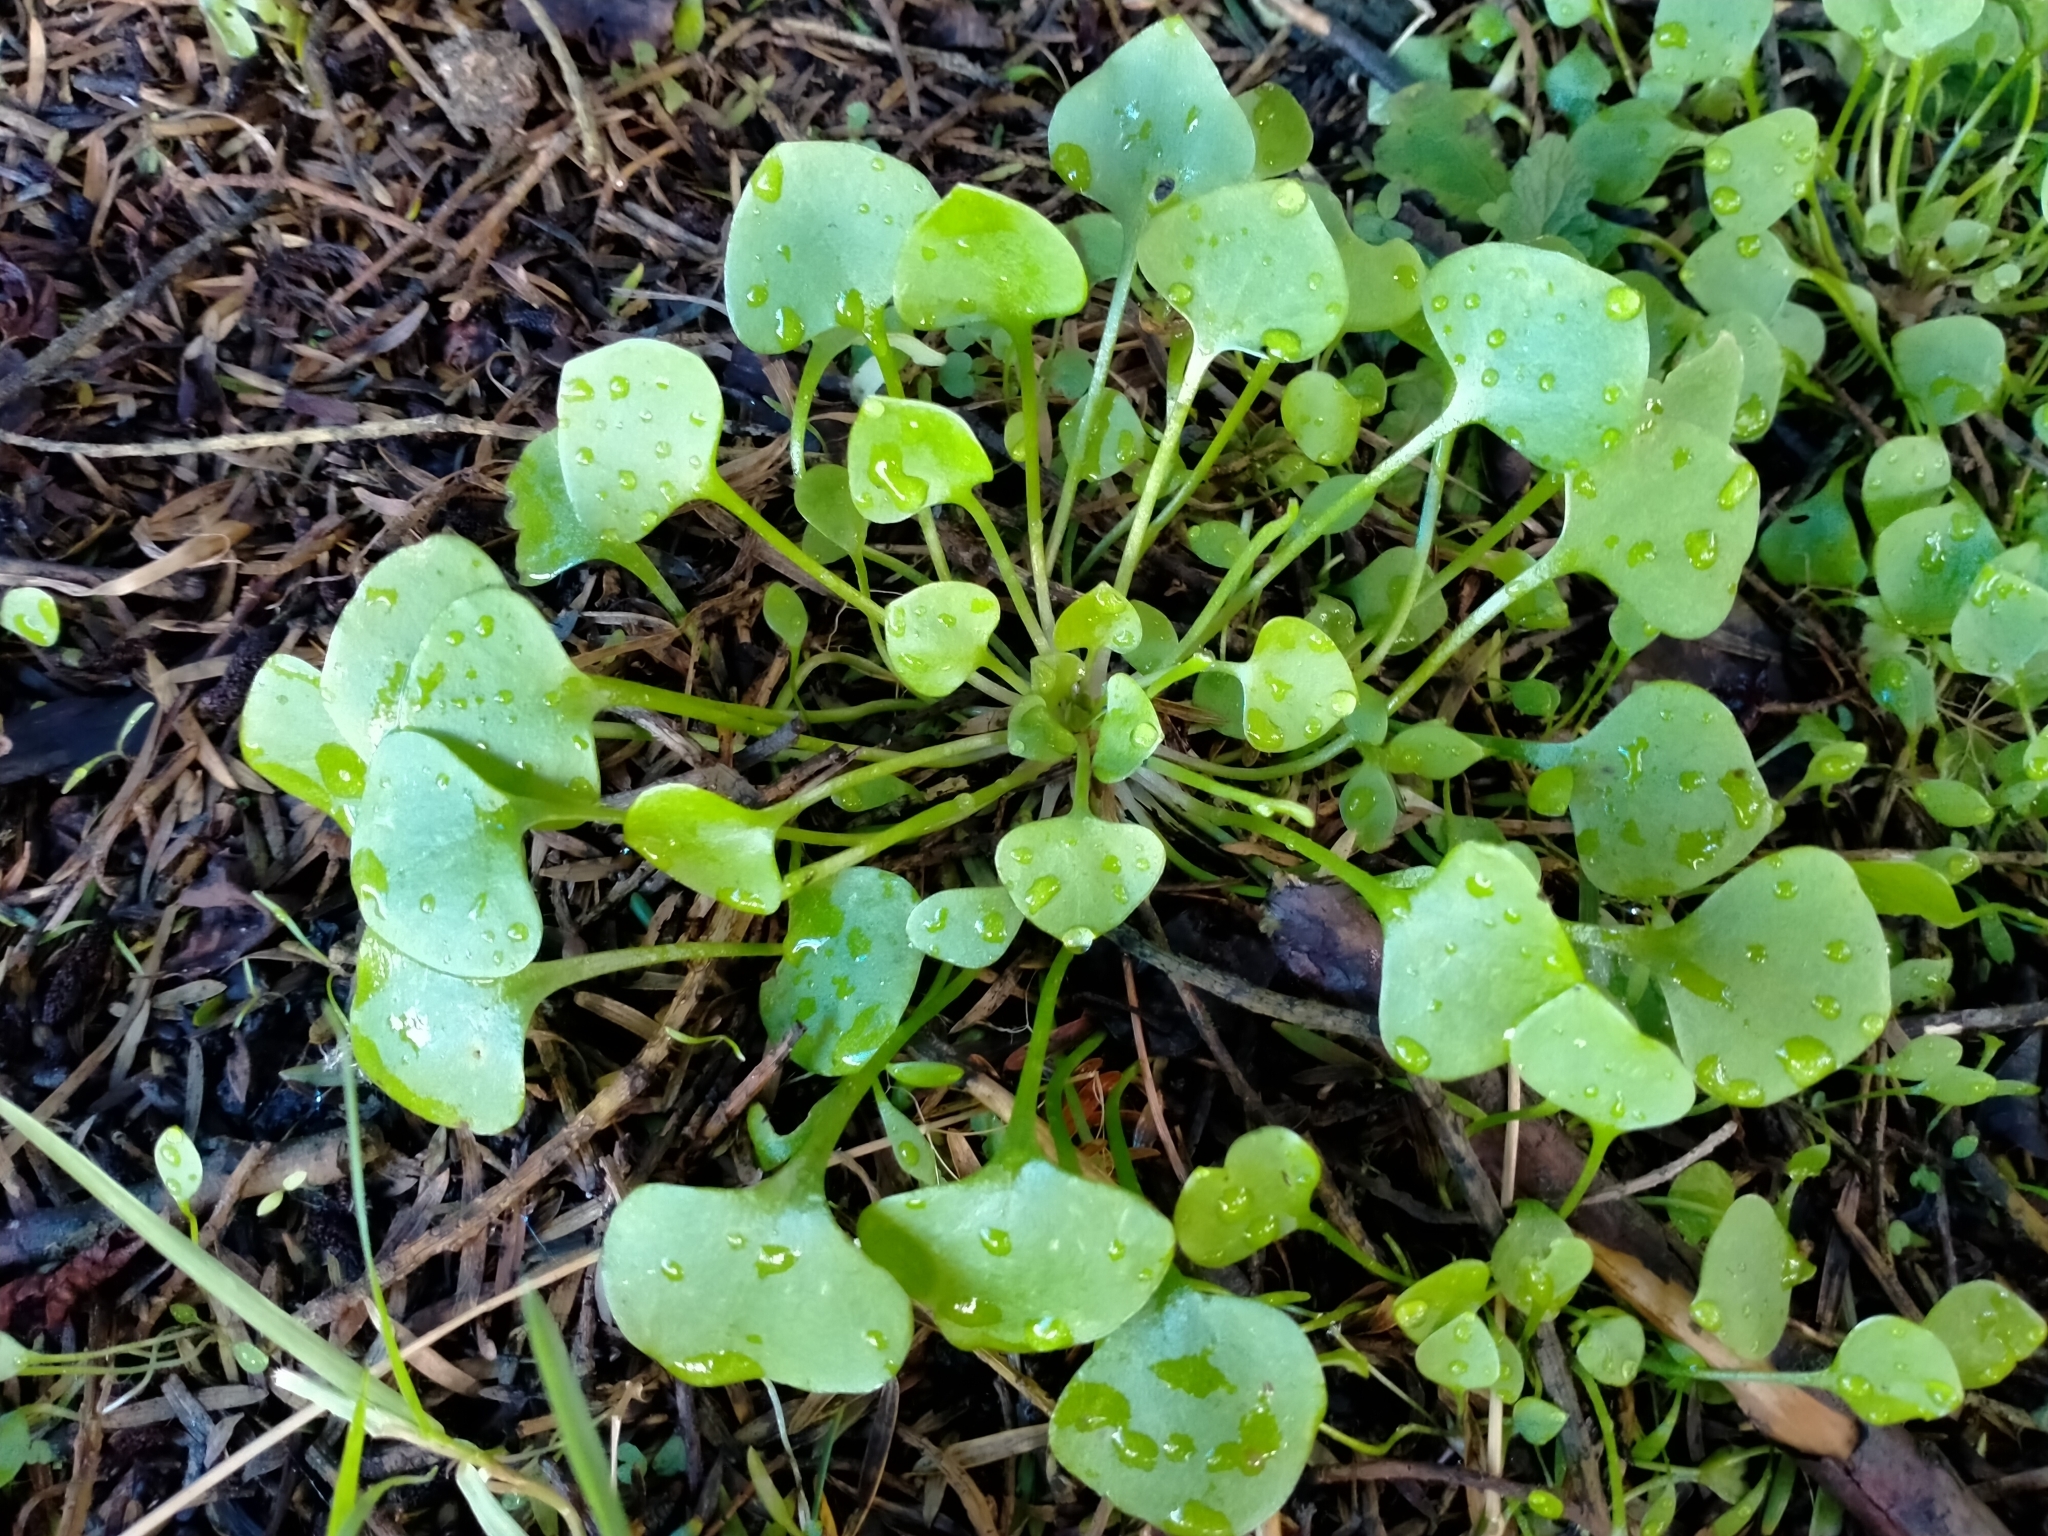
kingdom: Plantae
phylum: Tracheophyta
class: Magnoliopsida
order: Caryophyllales
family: Montiaceae
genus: Claytonia
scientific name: Claytonia perfoliata
